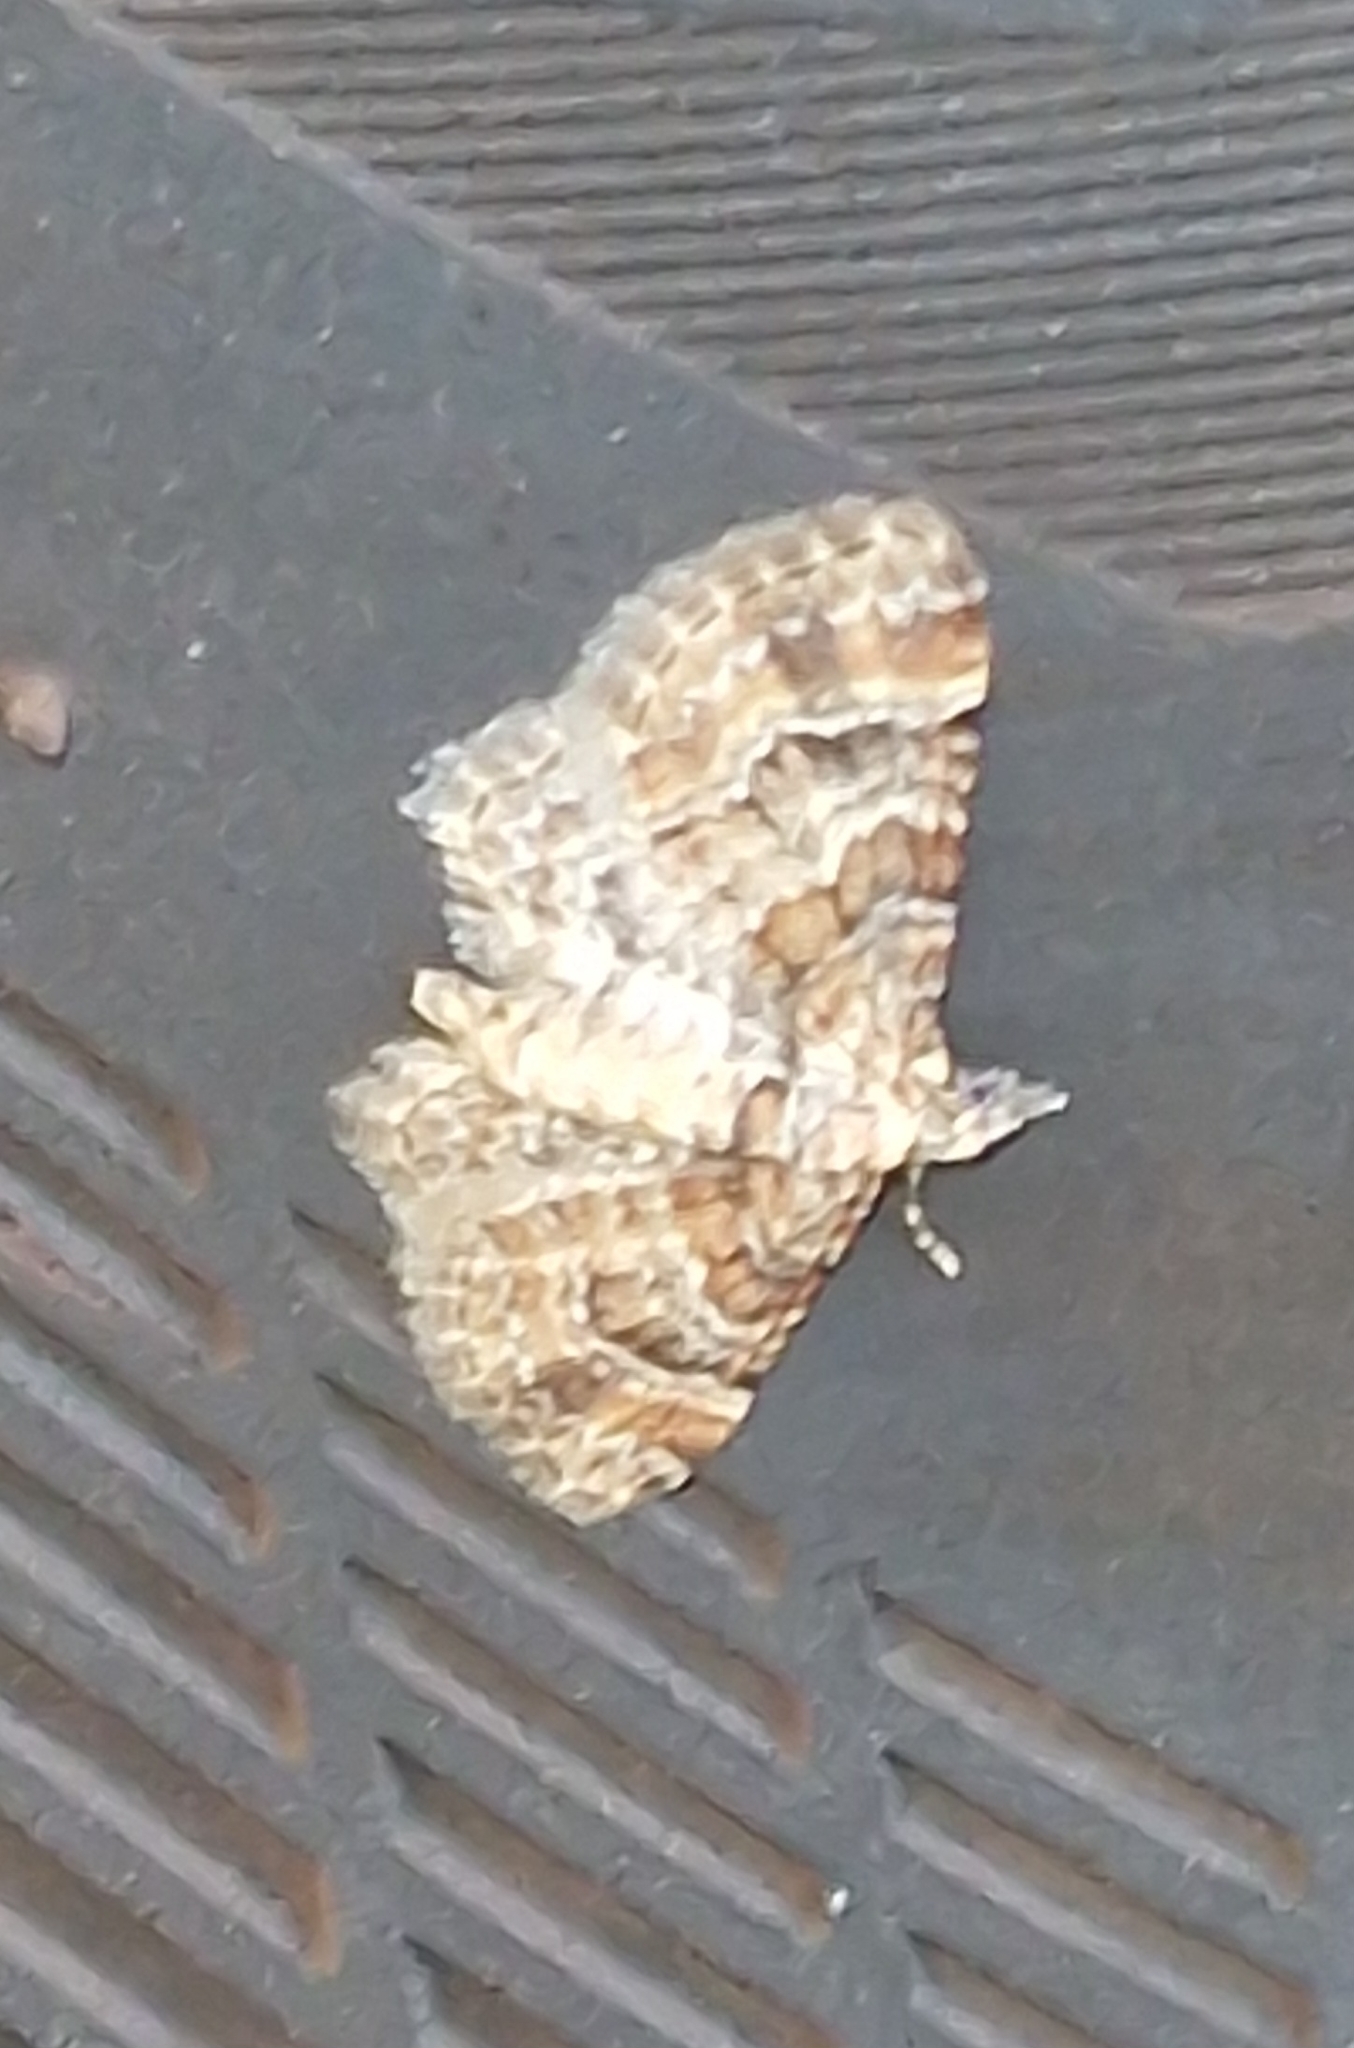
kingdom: Animalia
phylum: Arthropoda
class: Insecta
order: Lepidoptera
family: Geometridae
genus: Gymnoscelis
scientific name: Gymnoscelis rufifasciata
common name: Double-striped pug
